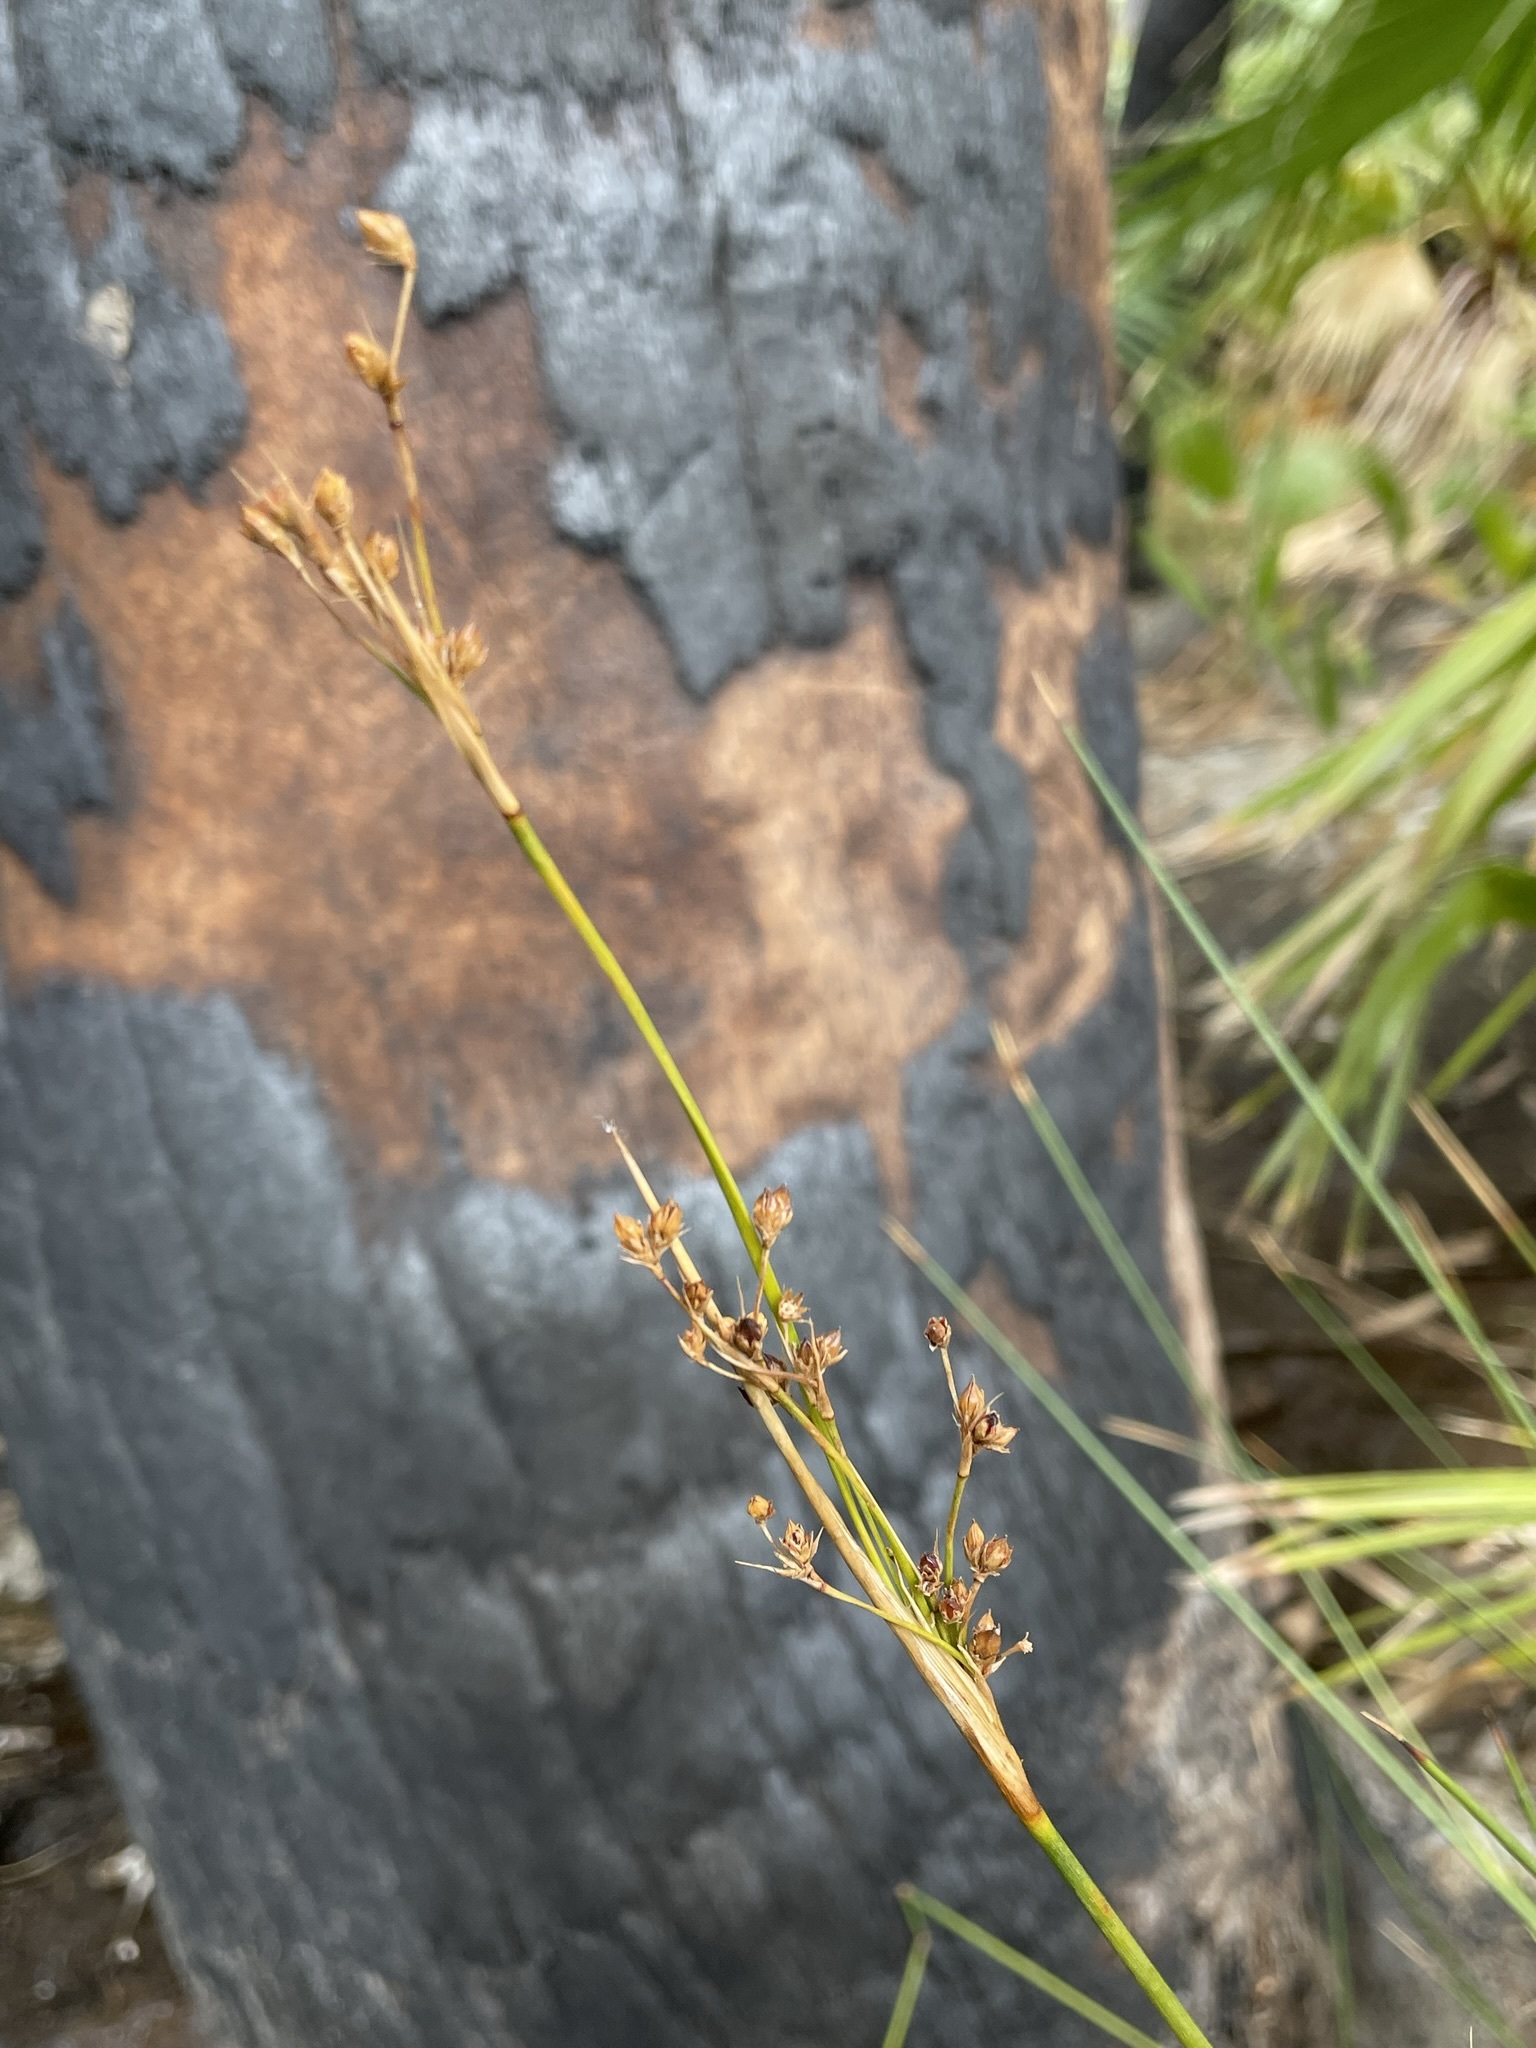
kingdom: Plantae
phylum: Tracheophyta
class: Liliopsida
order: Poales
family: Juncaceae
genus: Juncus
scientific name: Juncus acutus
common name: Sharp rush
